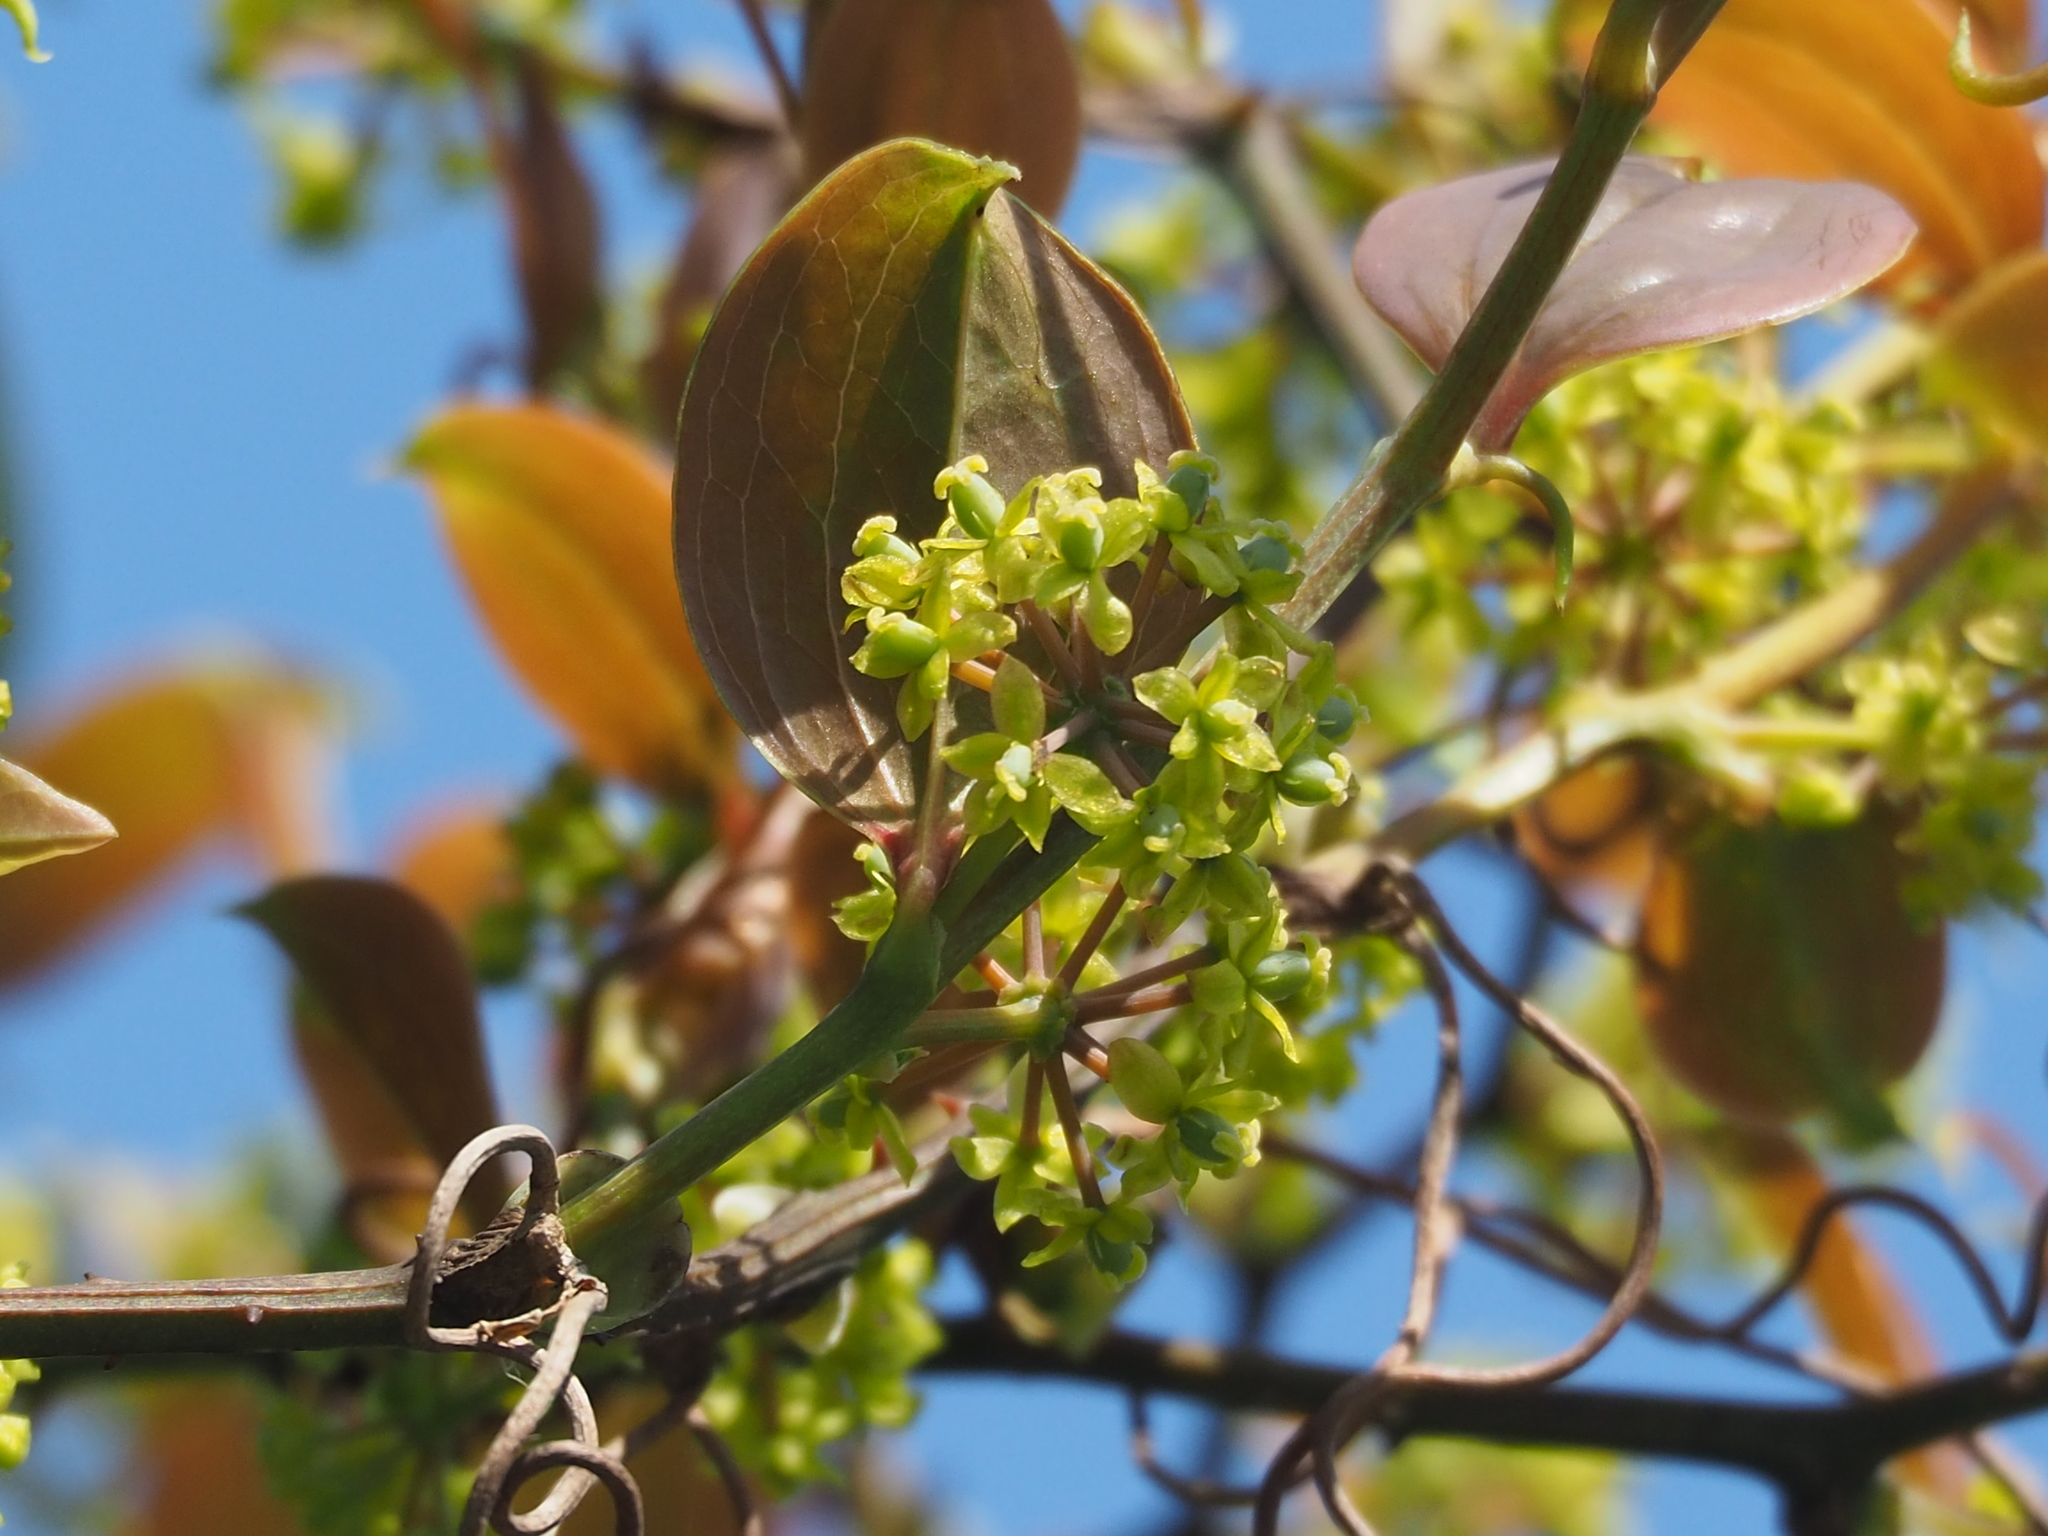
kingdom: Plantae
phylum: Tracheophyta
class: Liliopsida
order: Liliales
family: Smilacaceae
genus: Smilax
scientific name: Smilax china
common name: Chinaroot
